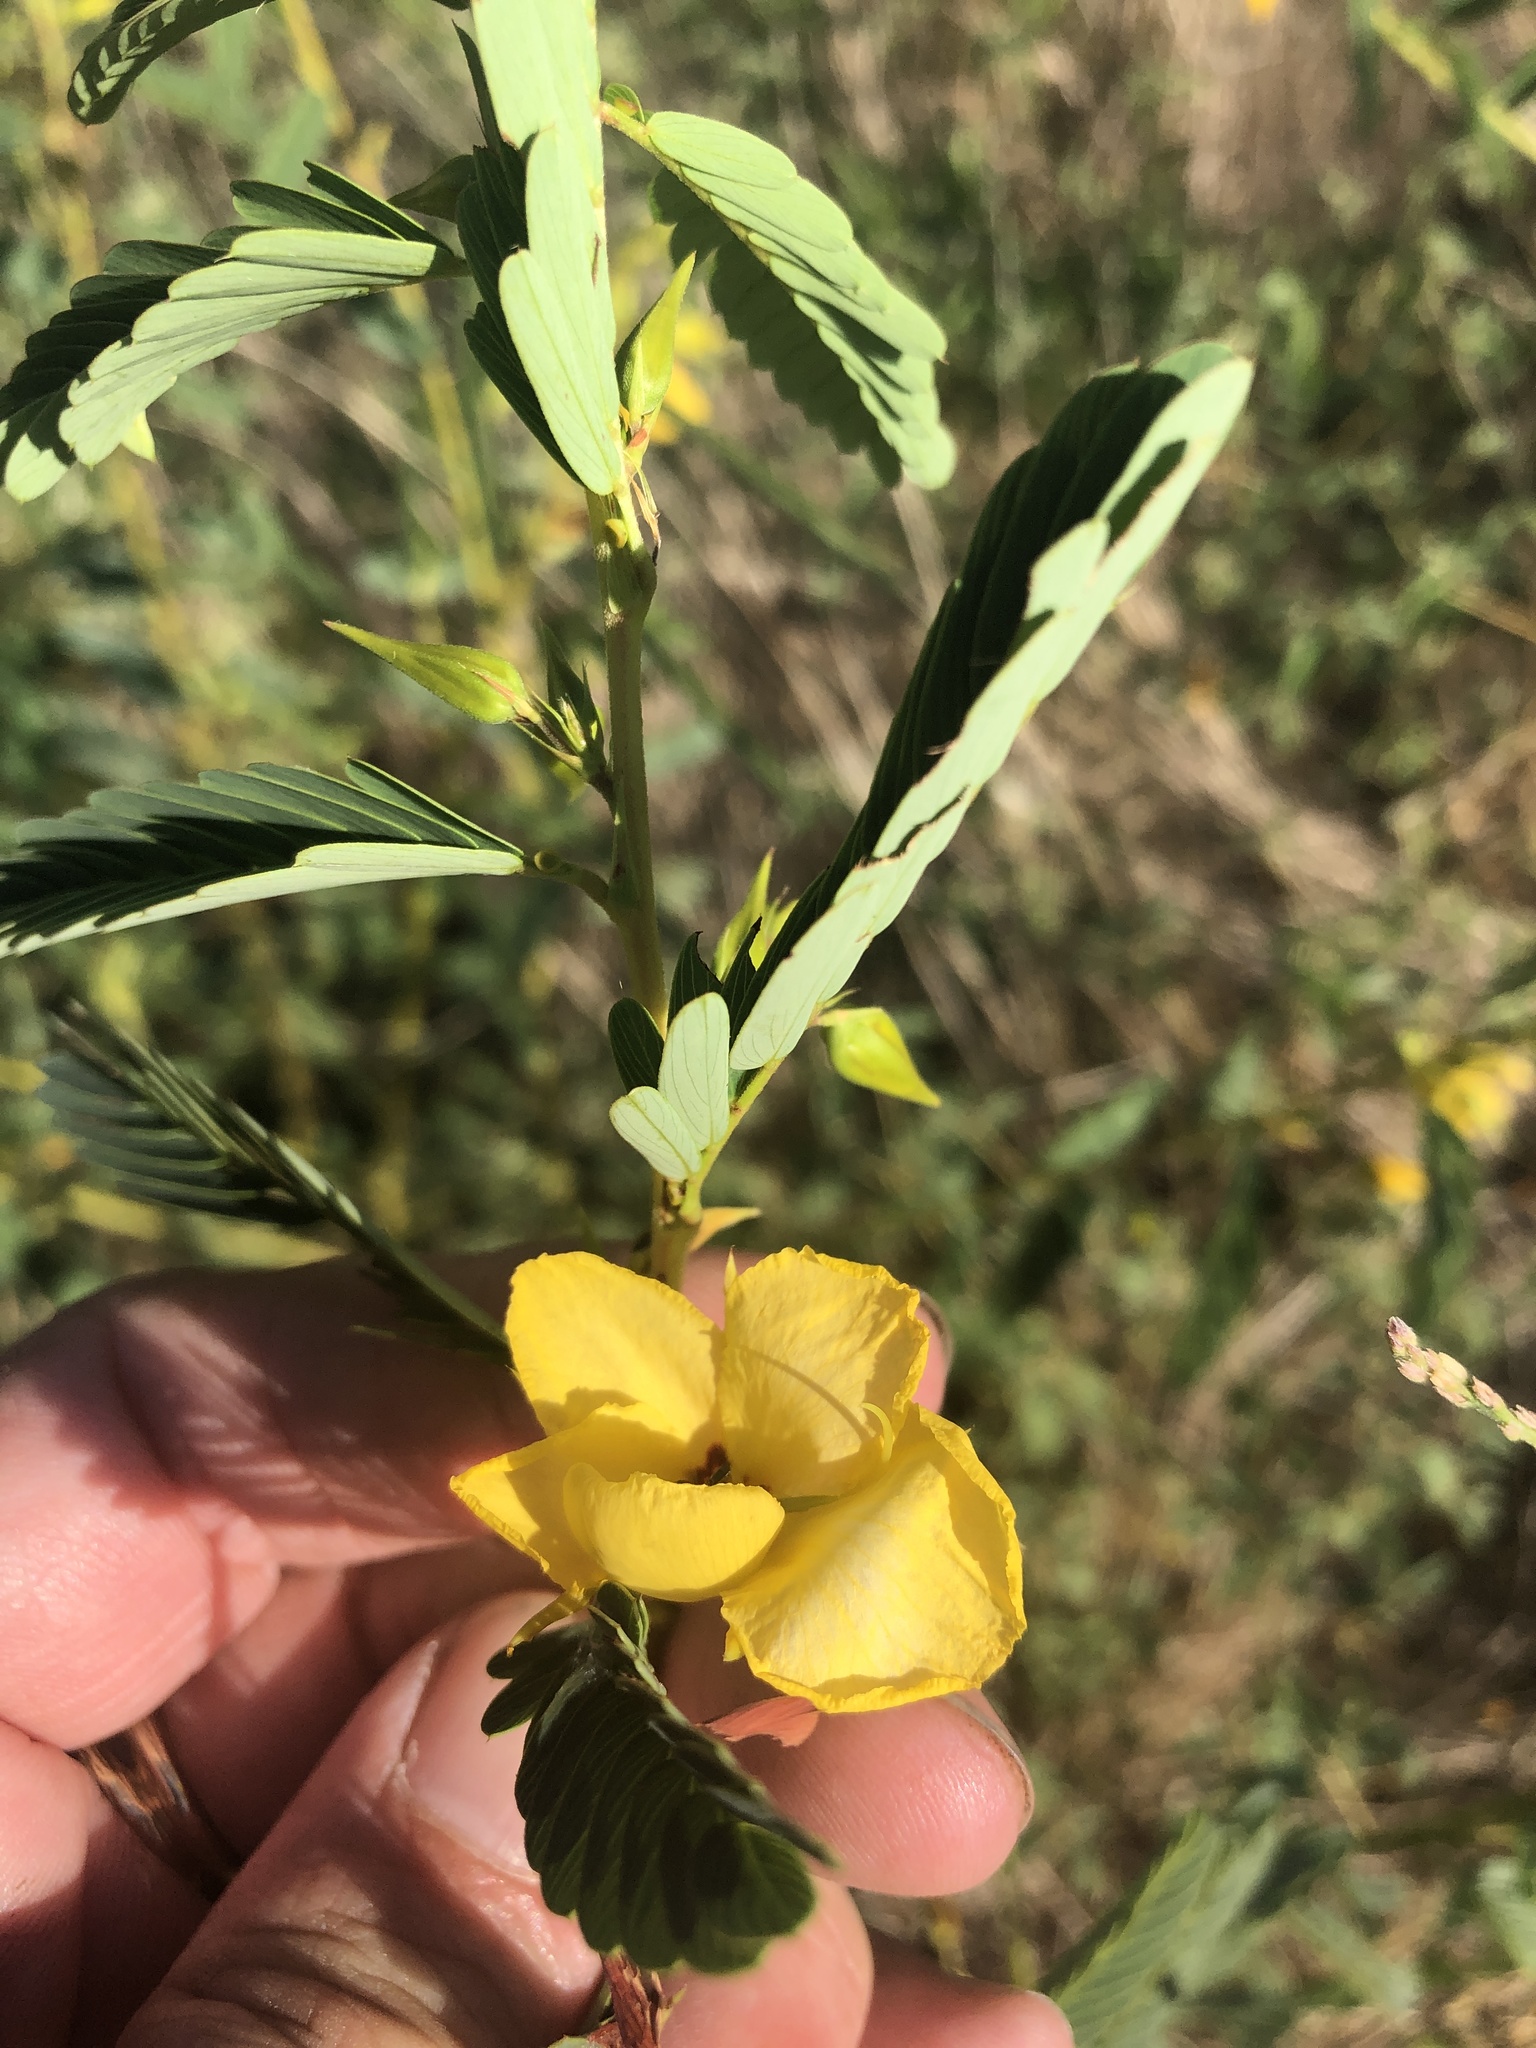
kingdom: Plantae
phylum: Tracheophyta
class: Magnoliopsida
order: Fabales
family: Fabaceae
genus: Chamaecrista
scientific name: Chamaecrista fasciculata
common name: Golden cassia
